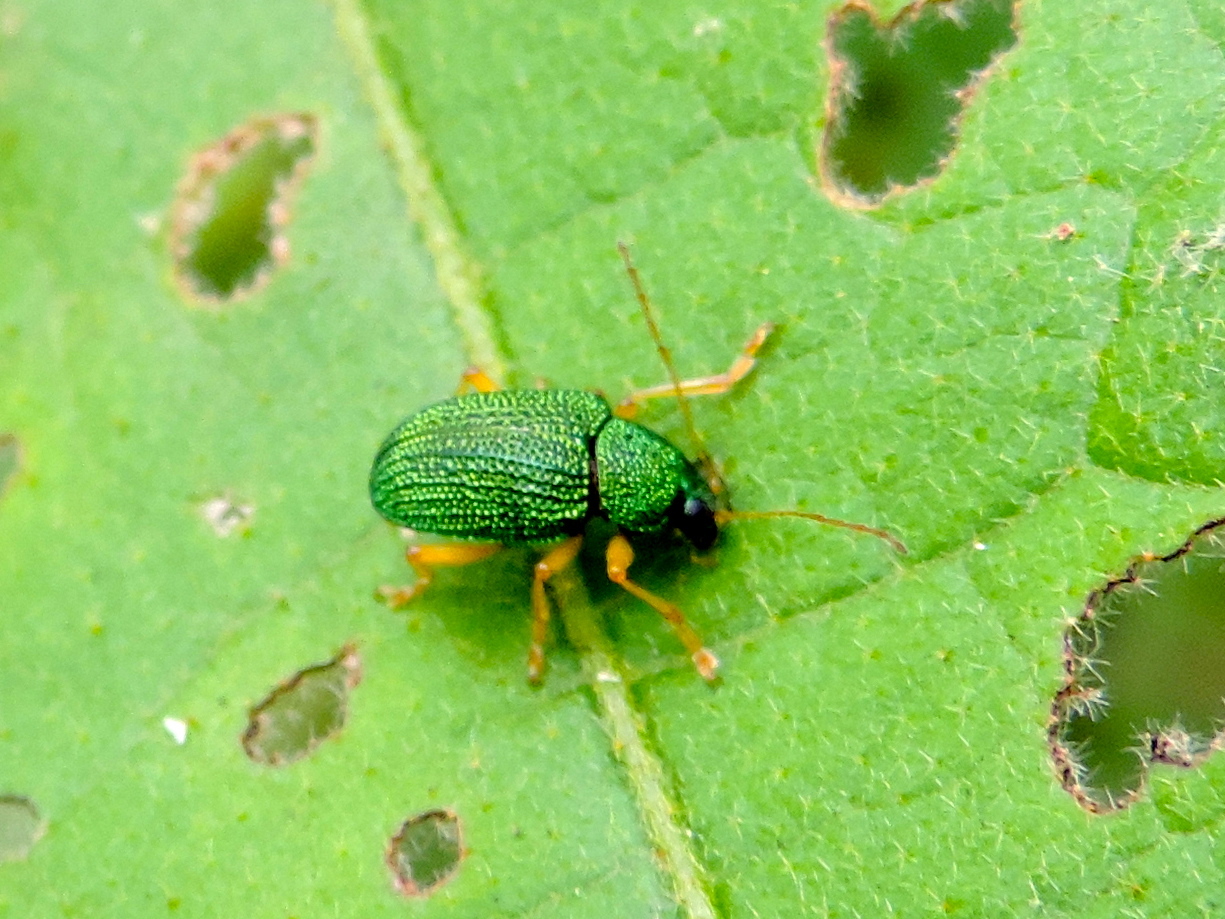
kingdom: Animalia
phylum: Arthropoda
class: Insecta
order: Coleoptera
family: Chrysomelidae
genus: Colaspis
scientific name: Colaspis
